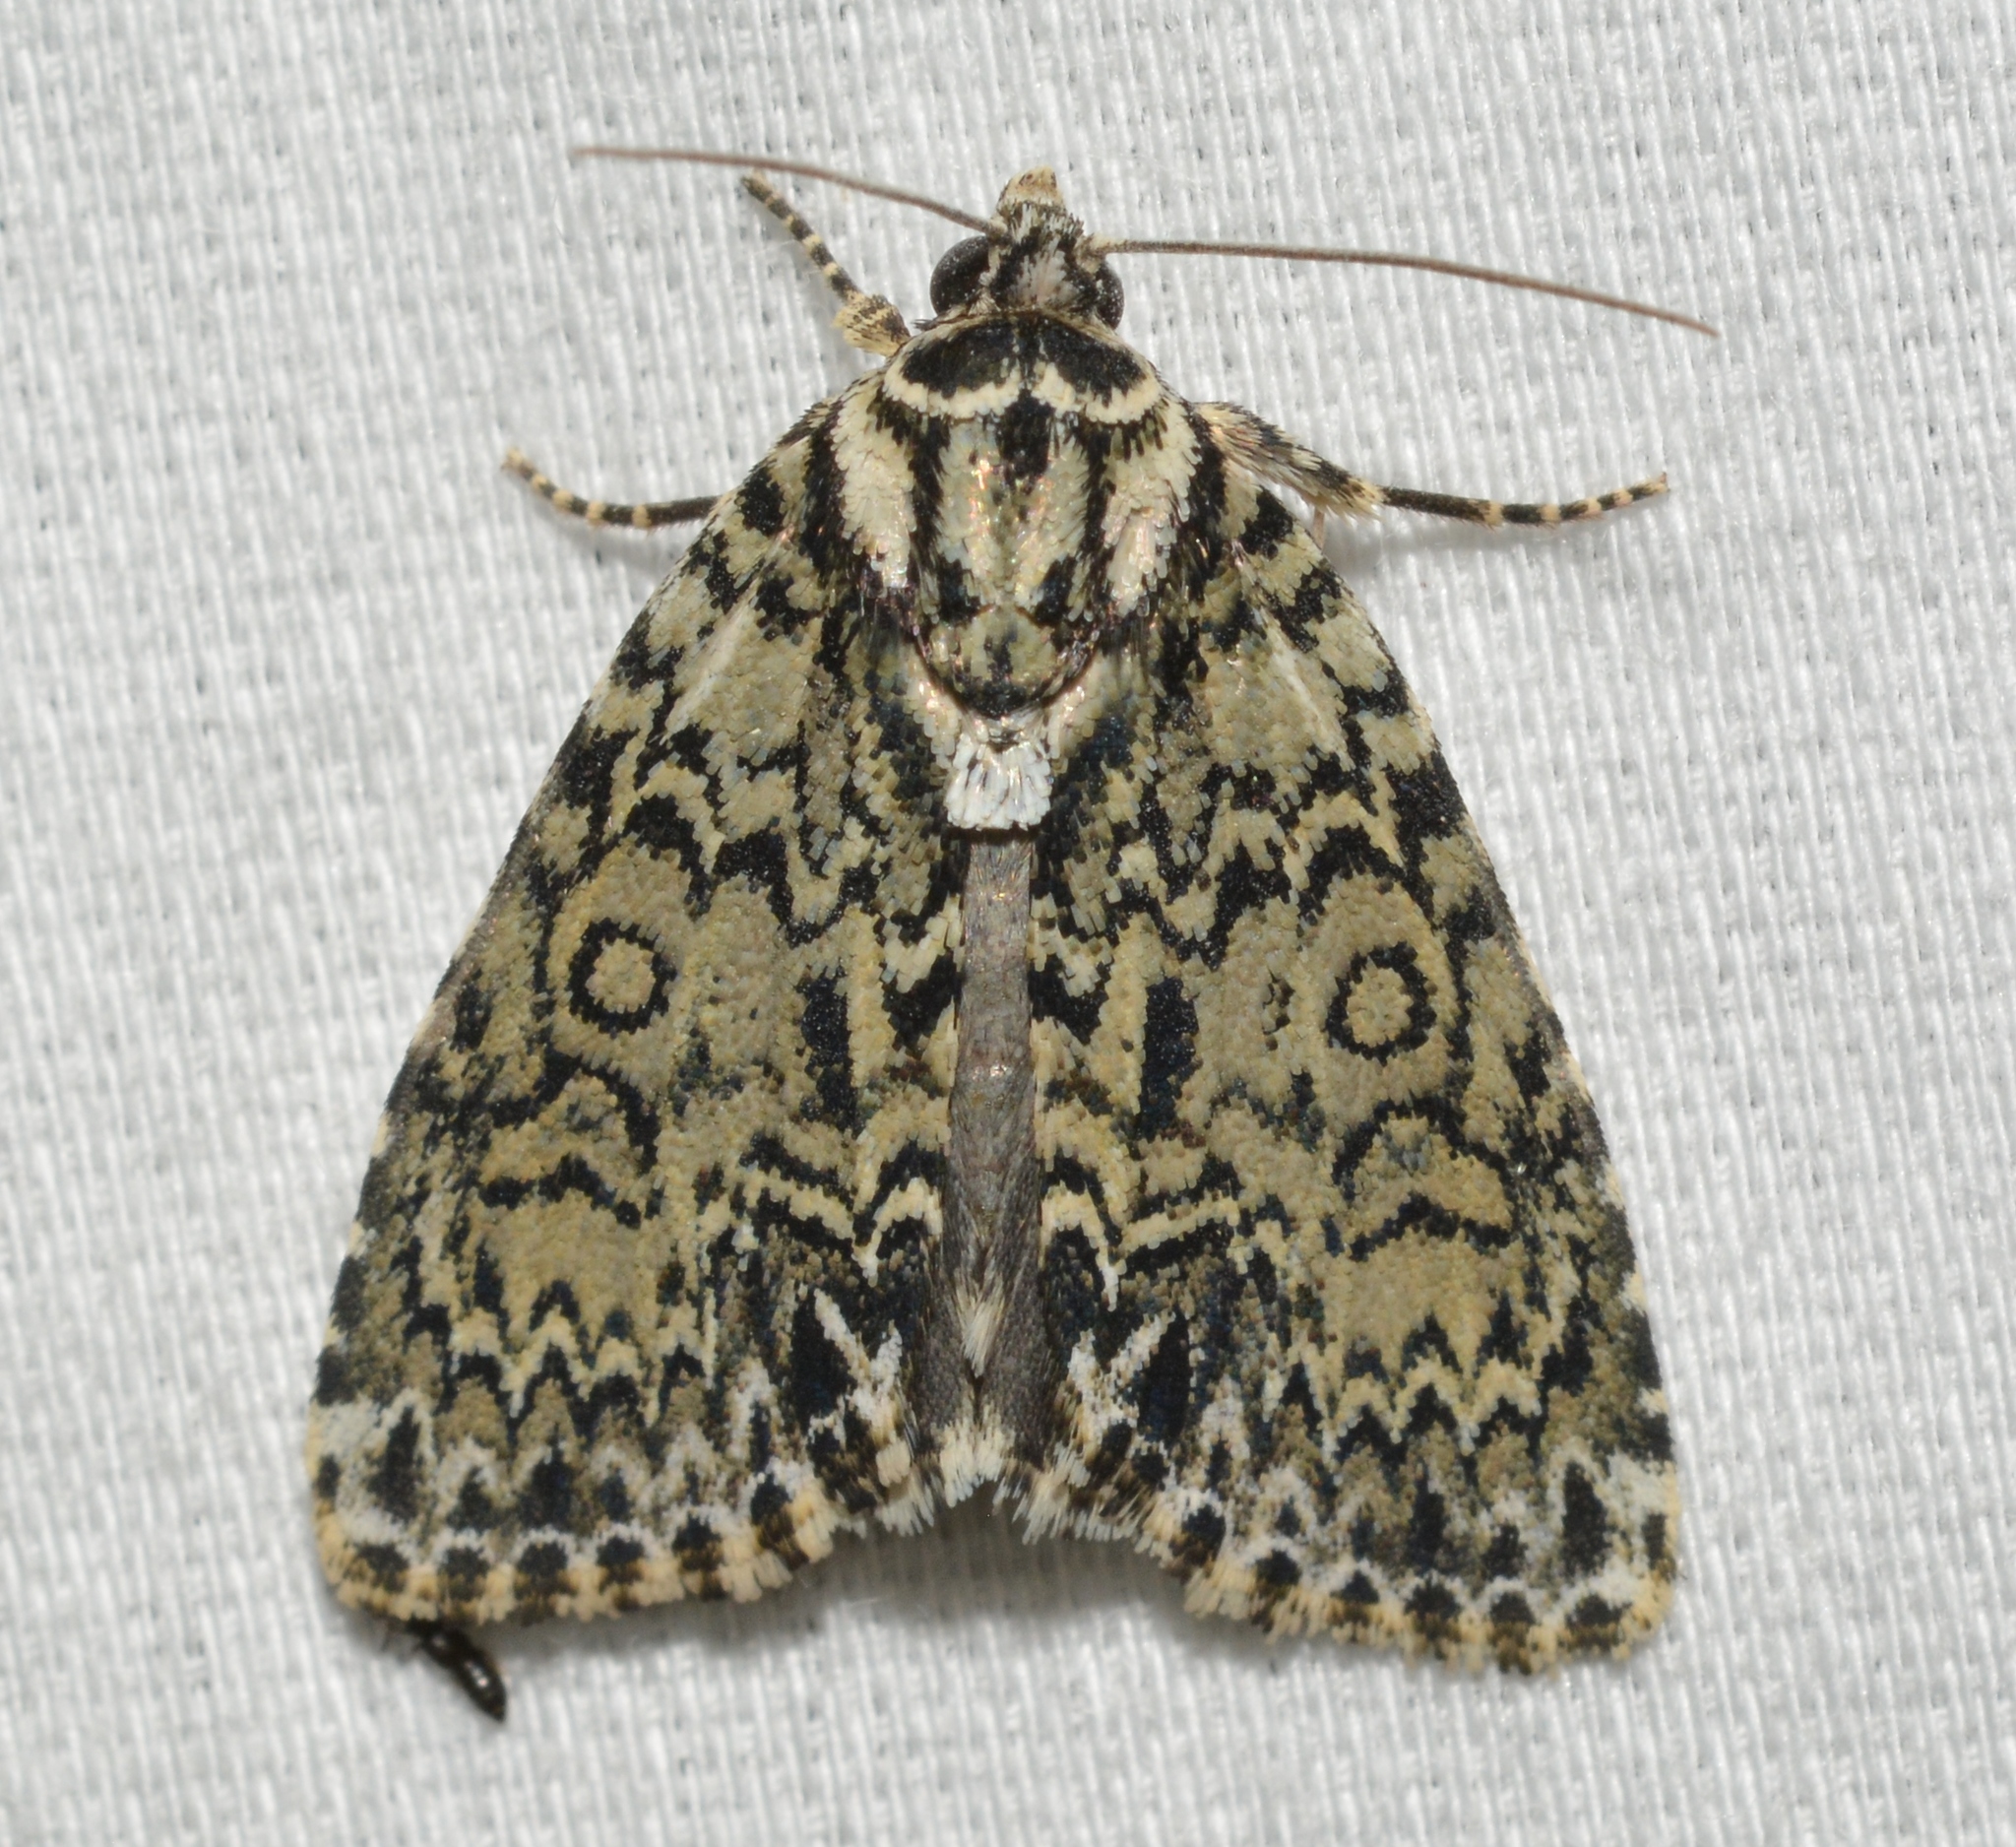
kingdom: Animalia
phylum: Arthropoda
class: Insecta
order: Lepidoptera
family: Noctuidae
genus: Acronicta
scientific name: Acronicta heitzmani
